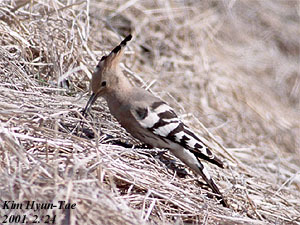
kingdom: Animalia
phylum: Chordata
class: Aves
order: Bucerotiformes
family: Upupidae
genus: Upupa
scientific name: Upupa epops
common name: Eurasian hoopoe
